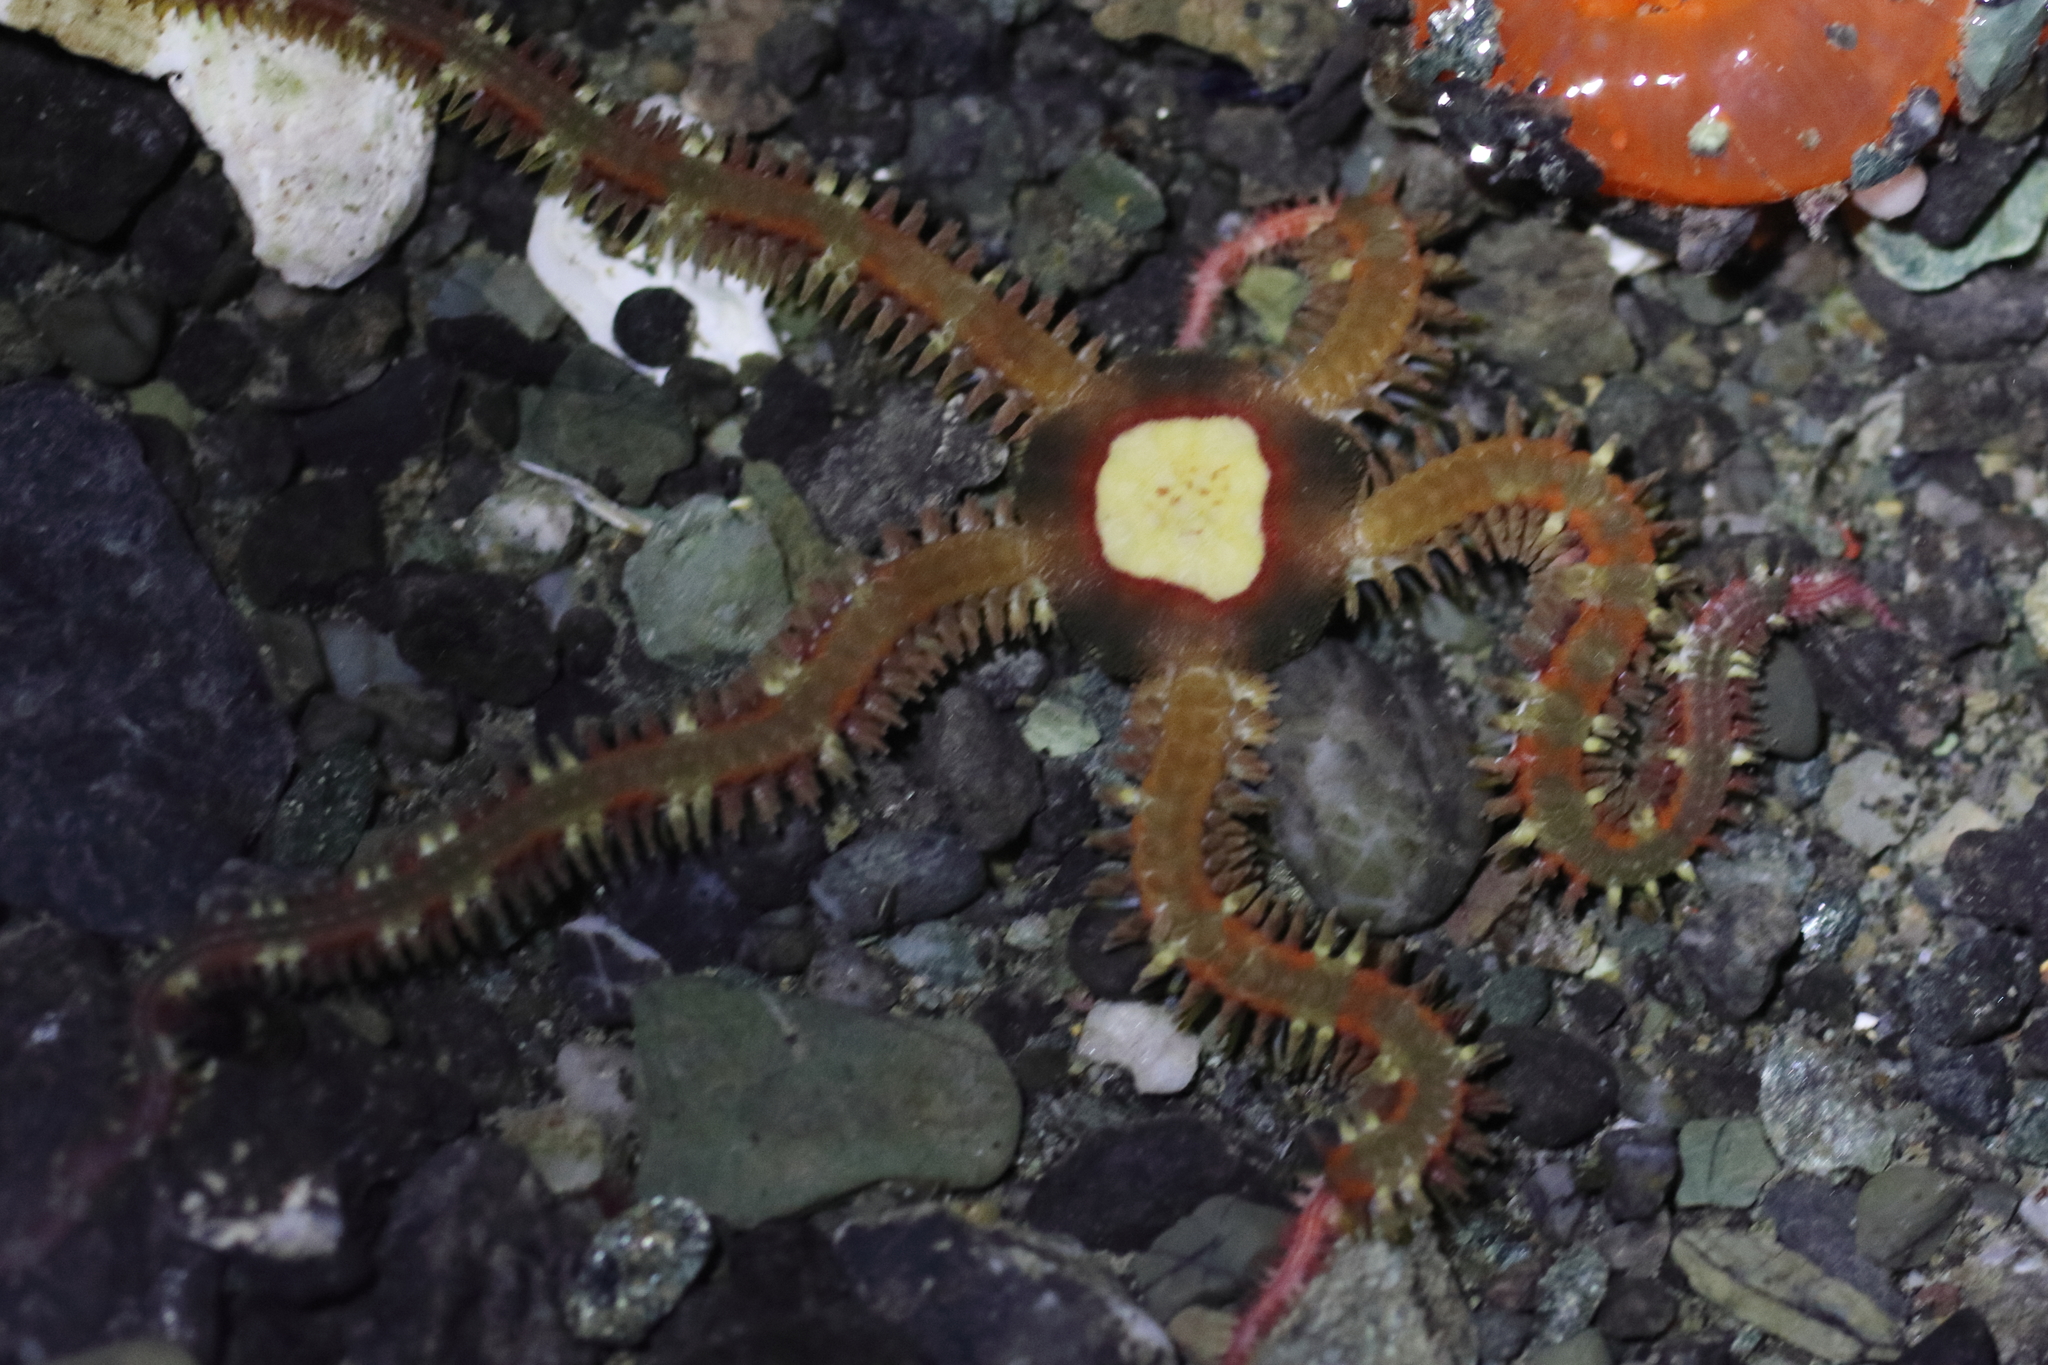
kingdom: Animalia
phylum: Echinodermata
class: Ophiuroidea
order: Amphilepidida
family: Ophiopholidae
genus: Ophiopholis
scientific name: Ophiopholis kennerlyi
